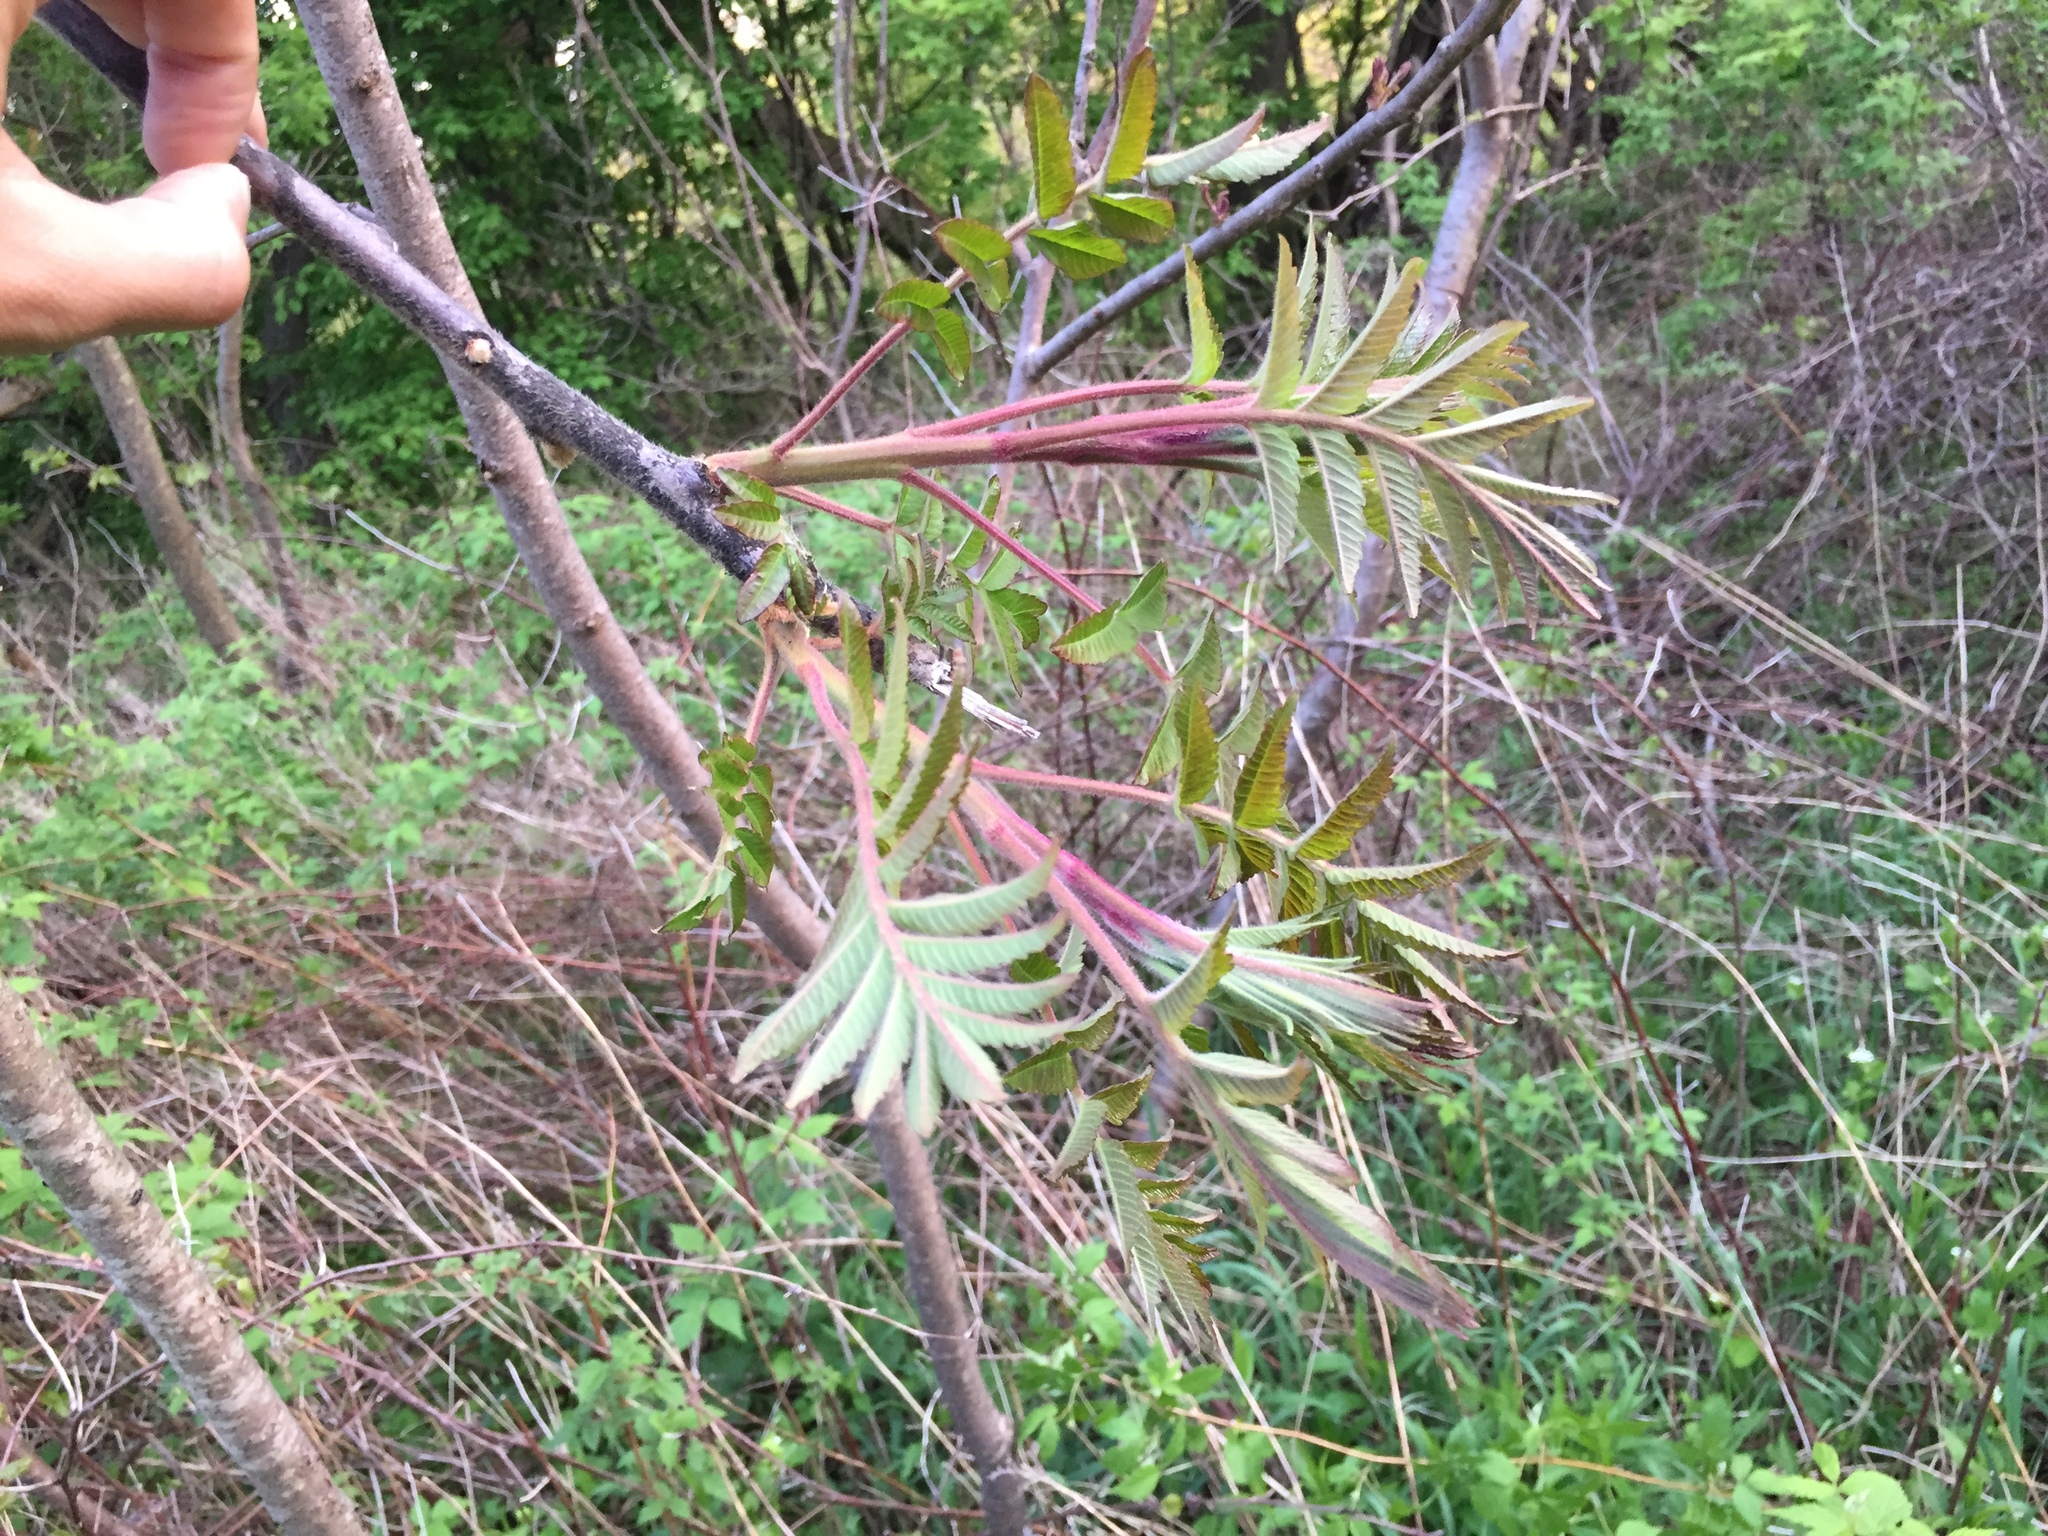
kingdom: Plantae
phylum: Tracheophyta
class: Magnoliopsida
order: Sapindales
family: Anacardiaceae
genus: Rhus
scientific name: Rhus typhina
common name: Staghorn sumac
